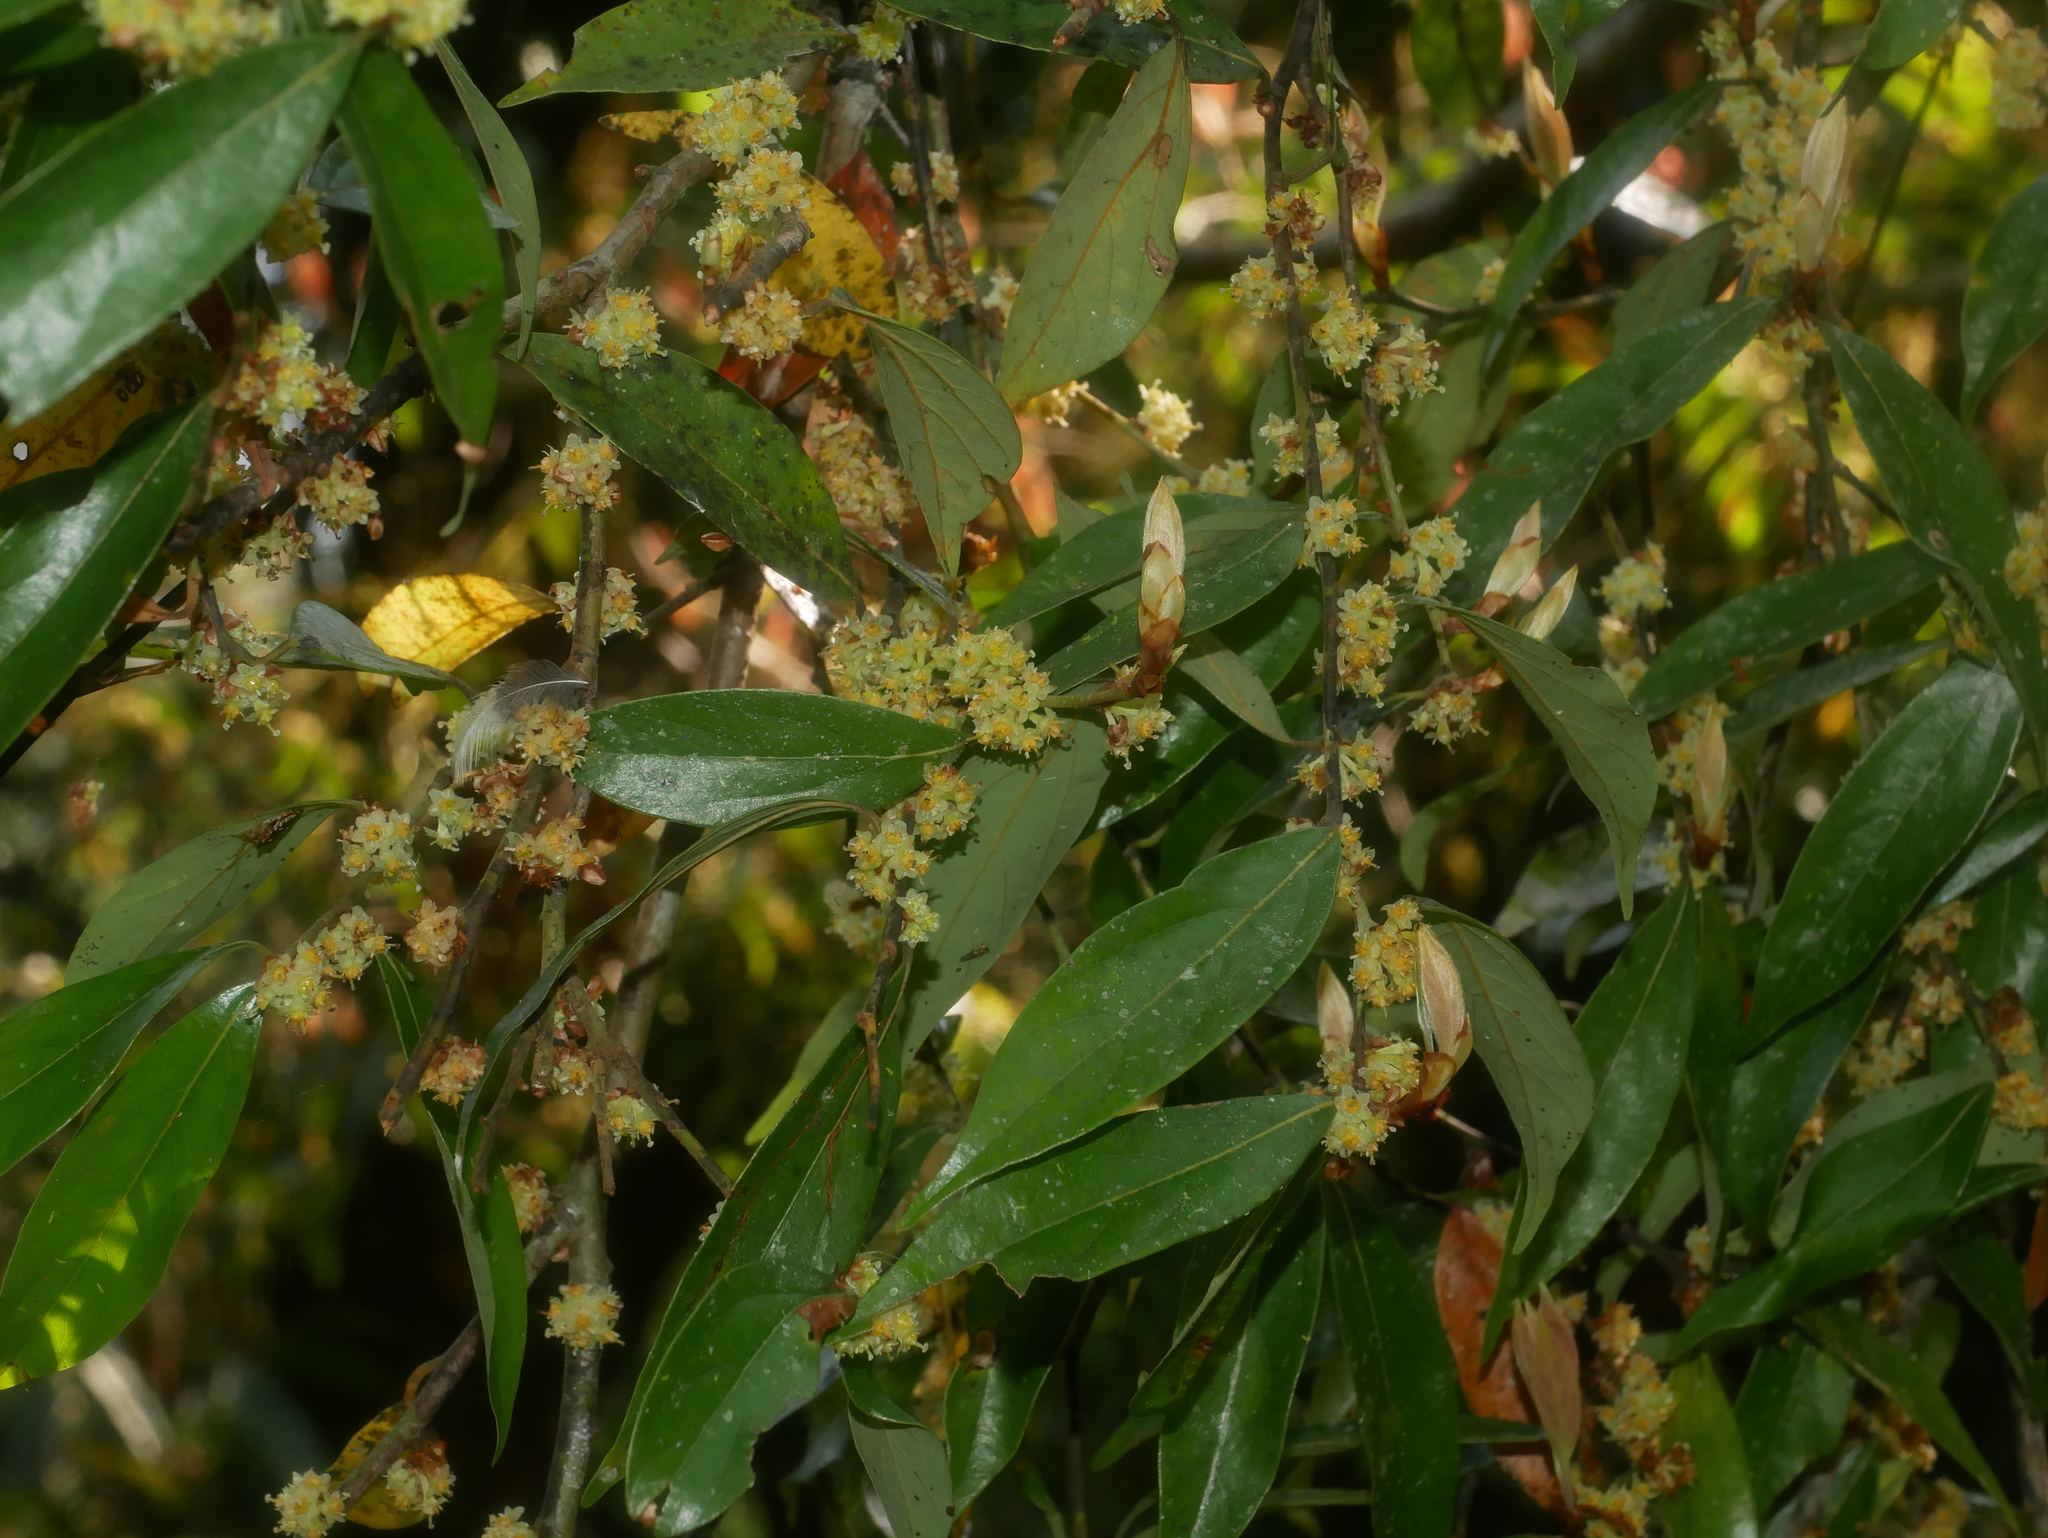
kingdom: Plantae
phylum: Tracheophyta
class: Magnoliopsida
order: Laurales
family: Lauraceae
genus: Lindera
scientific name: Lindera communis
